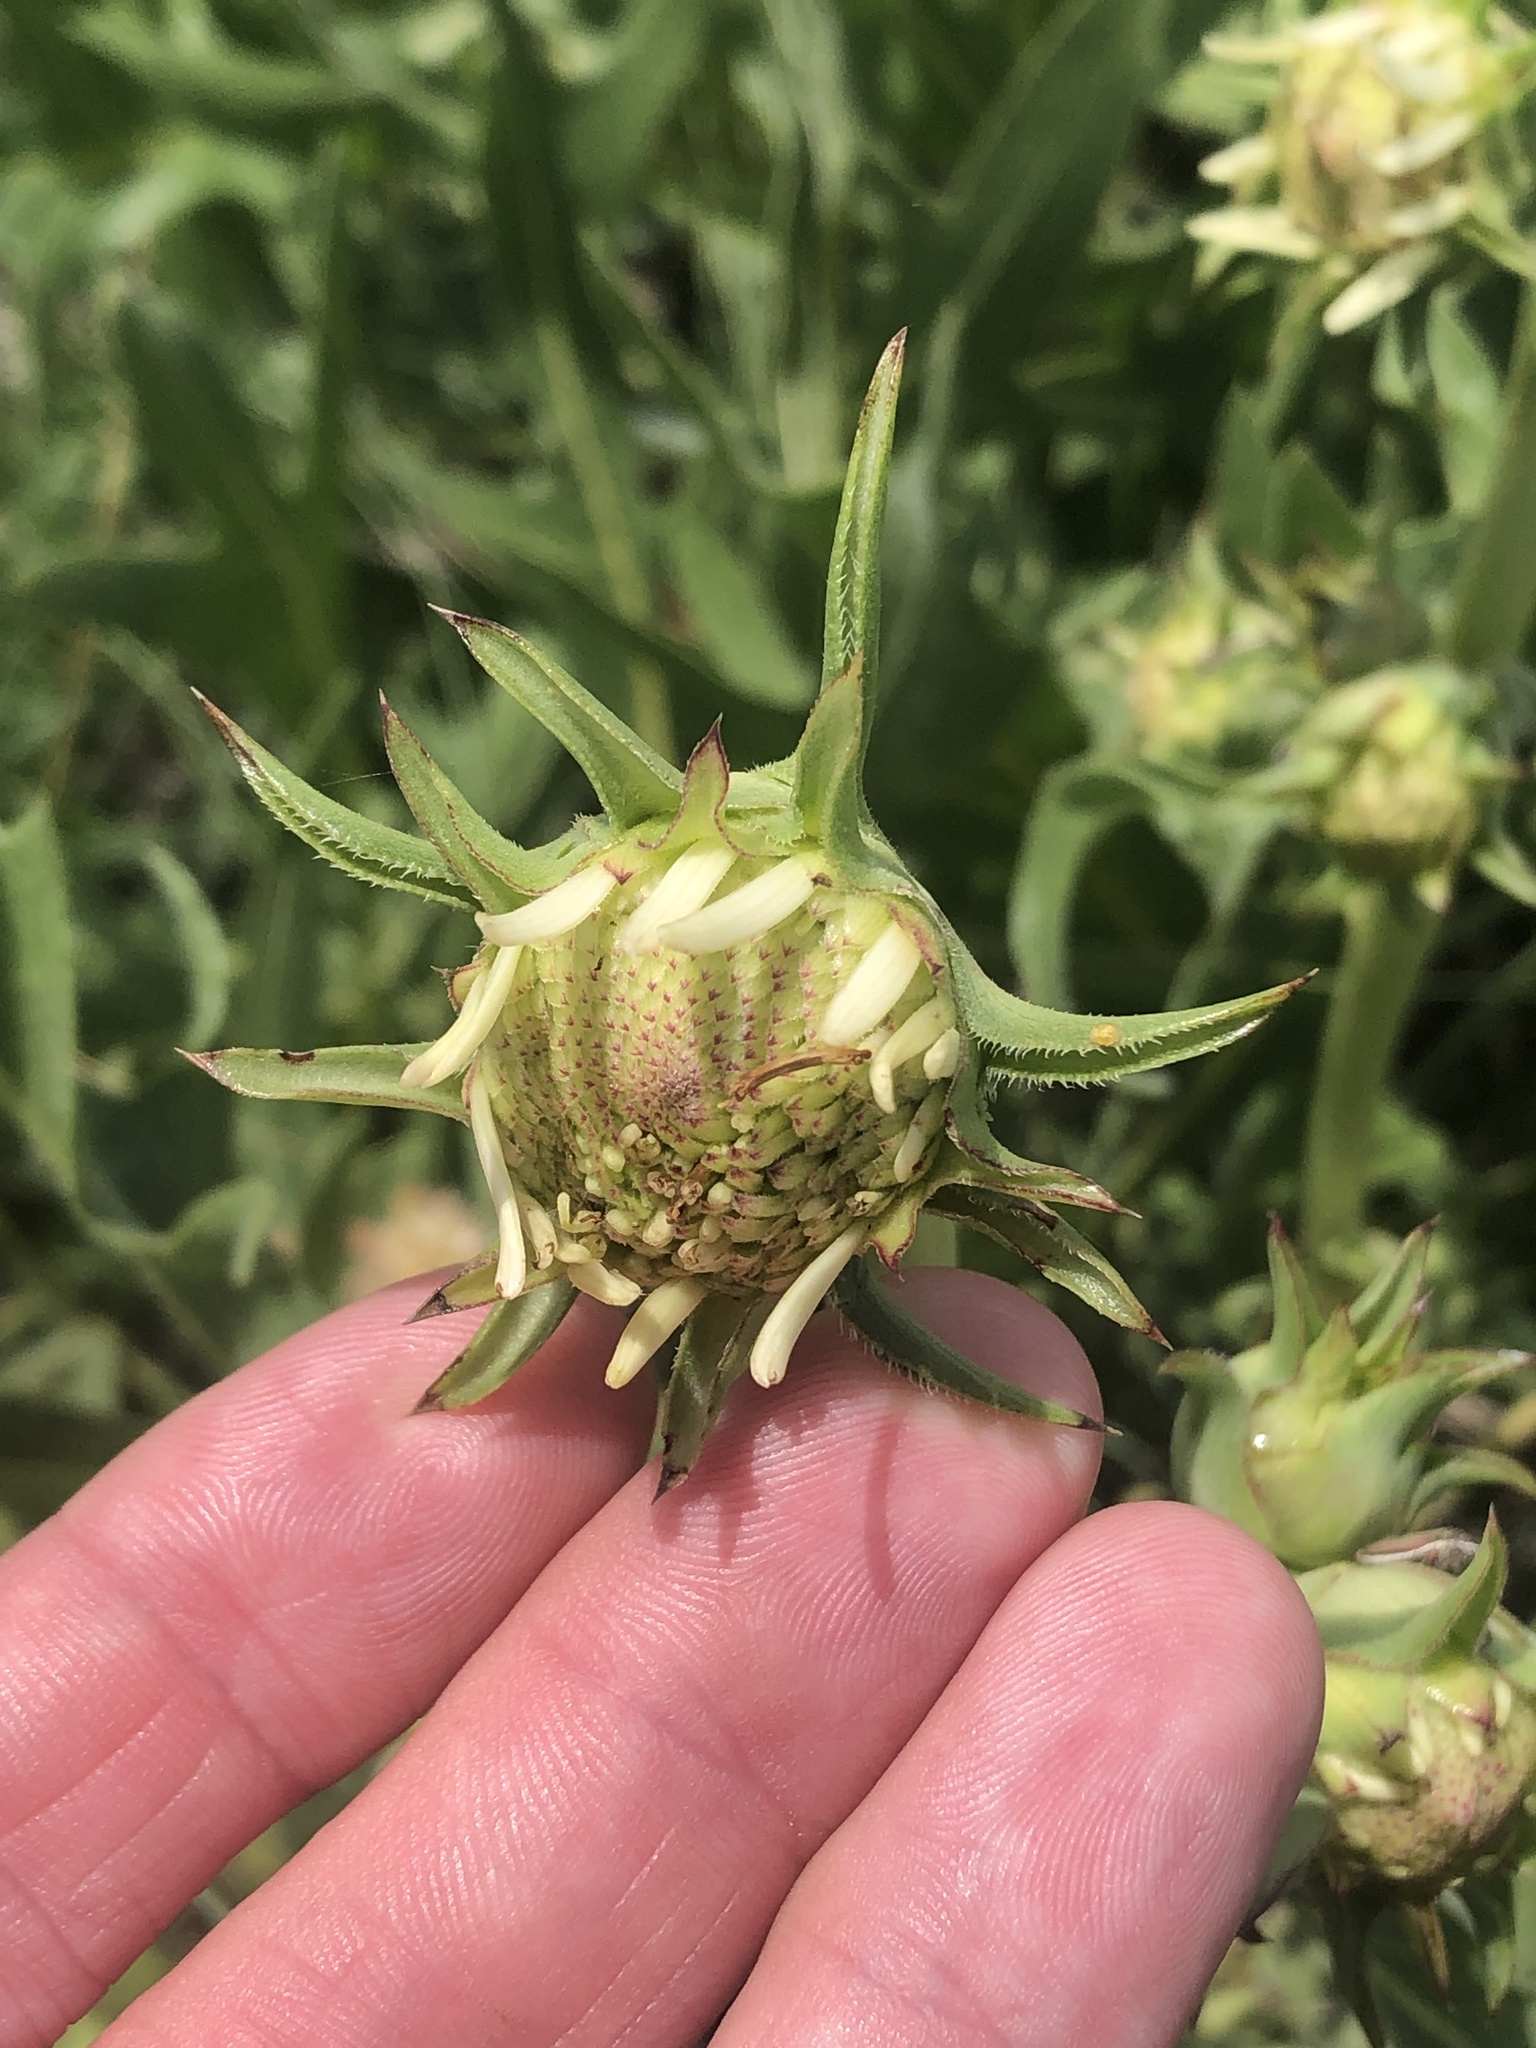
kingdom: Plantae
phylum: Tracheophyta
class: Magnoliopsida
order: Asterales
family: Asteraceae
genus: Silphium
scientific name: Silphium albiflorum
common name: White rosinweed
